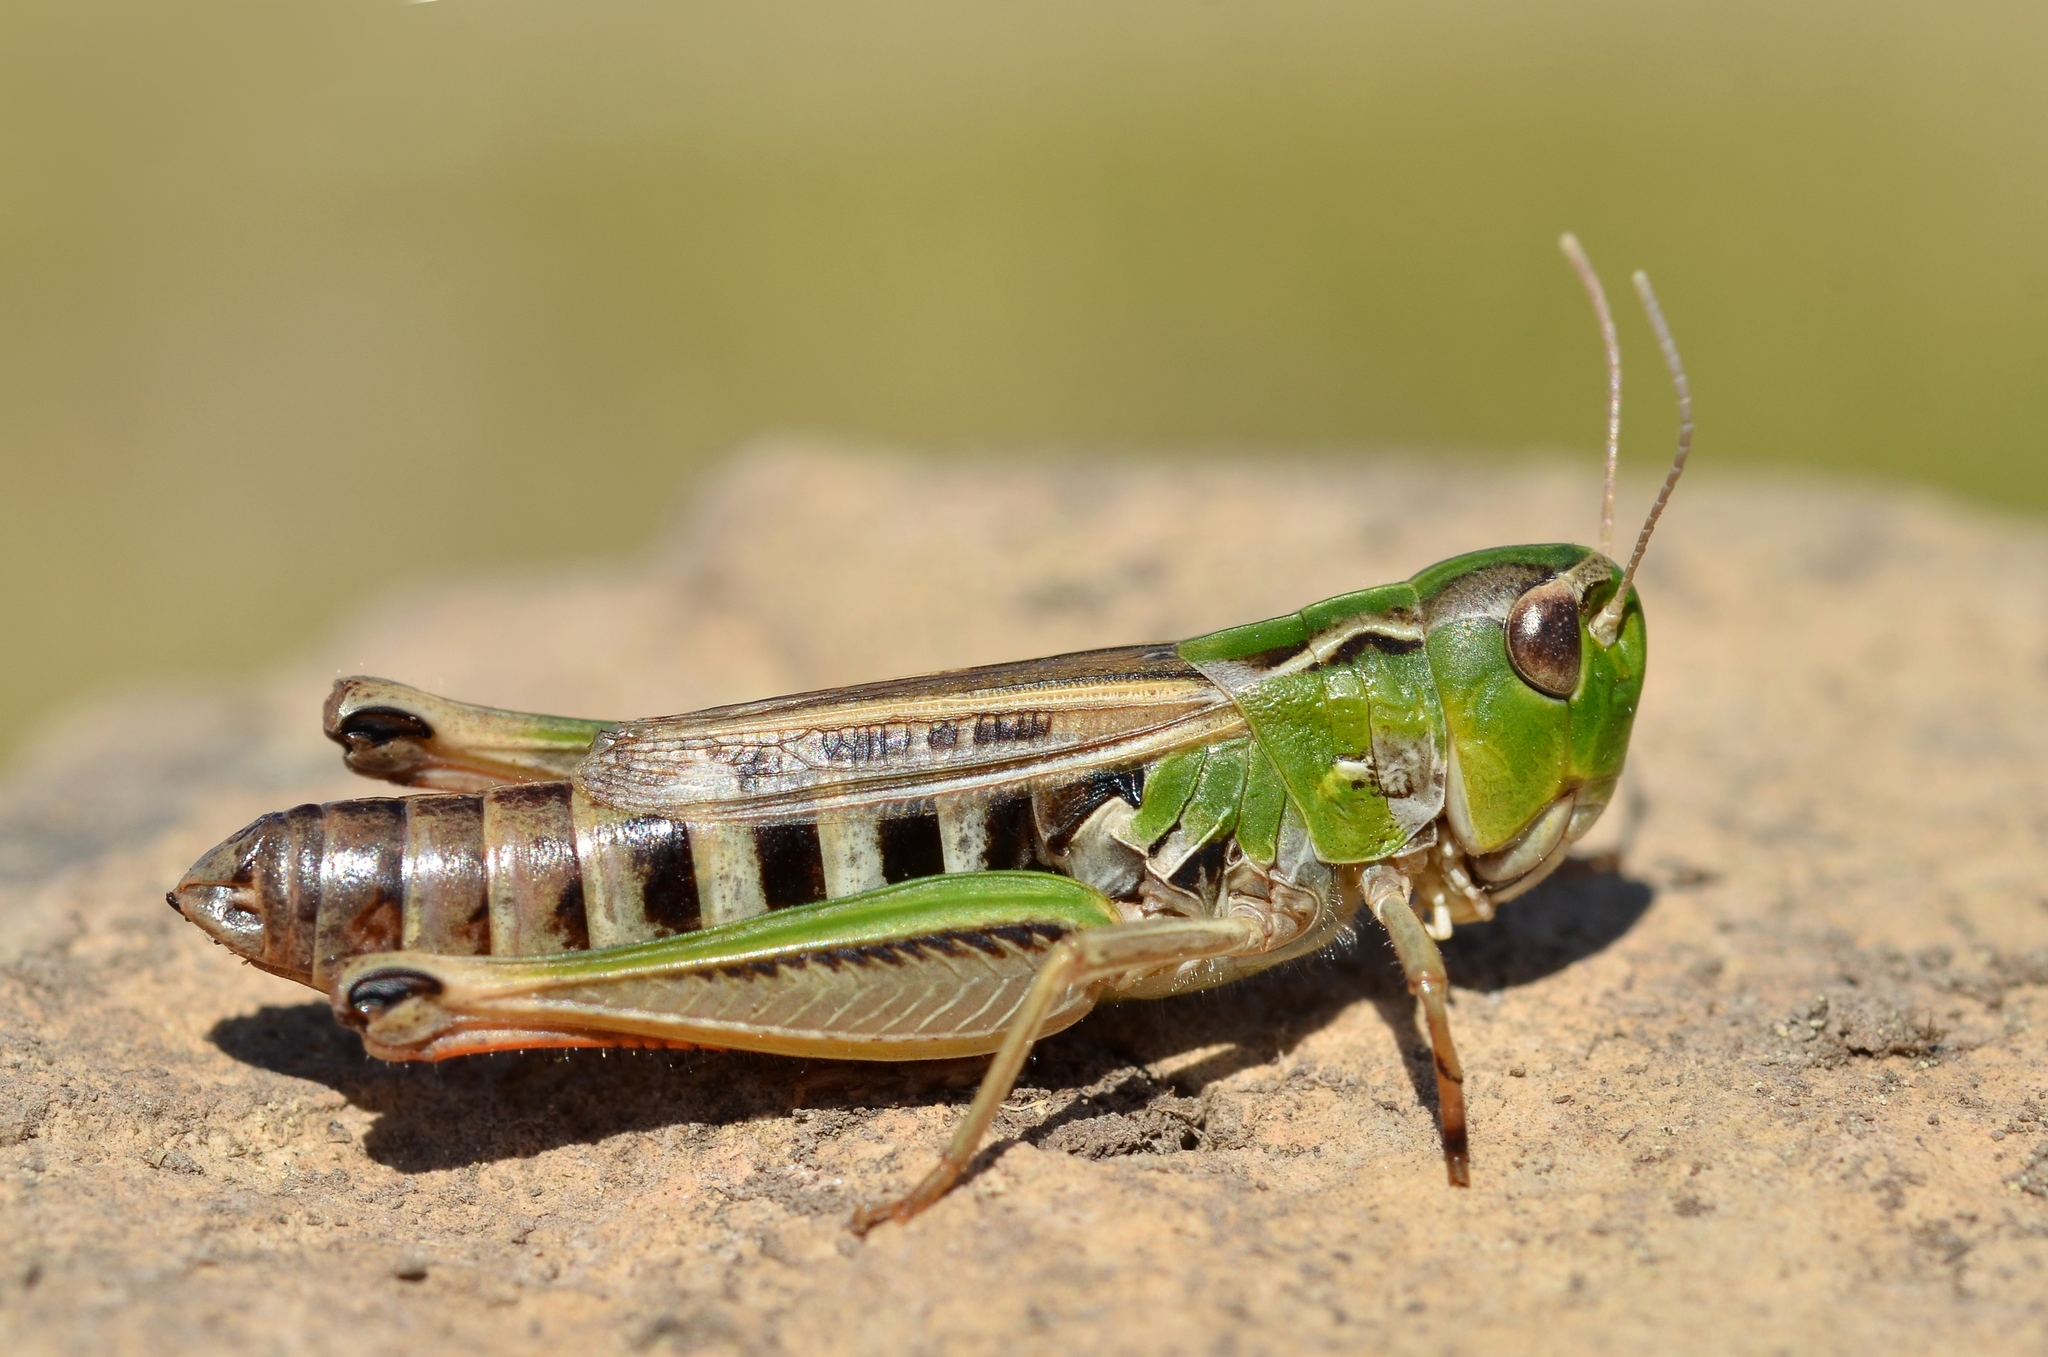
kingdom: Animalia
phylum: Arthropoda
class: Insecta
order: Orthoptera
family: Acrididae
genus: Stenobothrus
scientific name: Stenobothrus nigromaculatus
